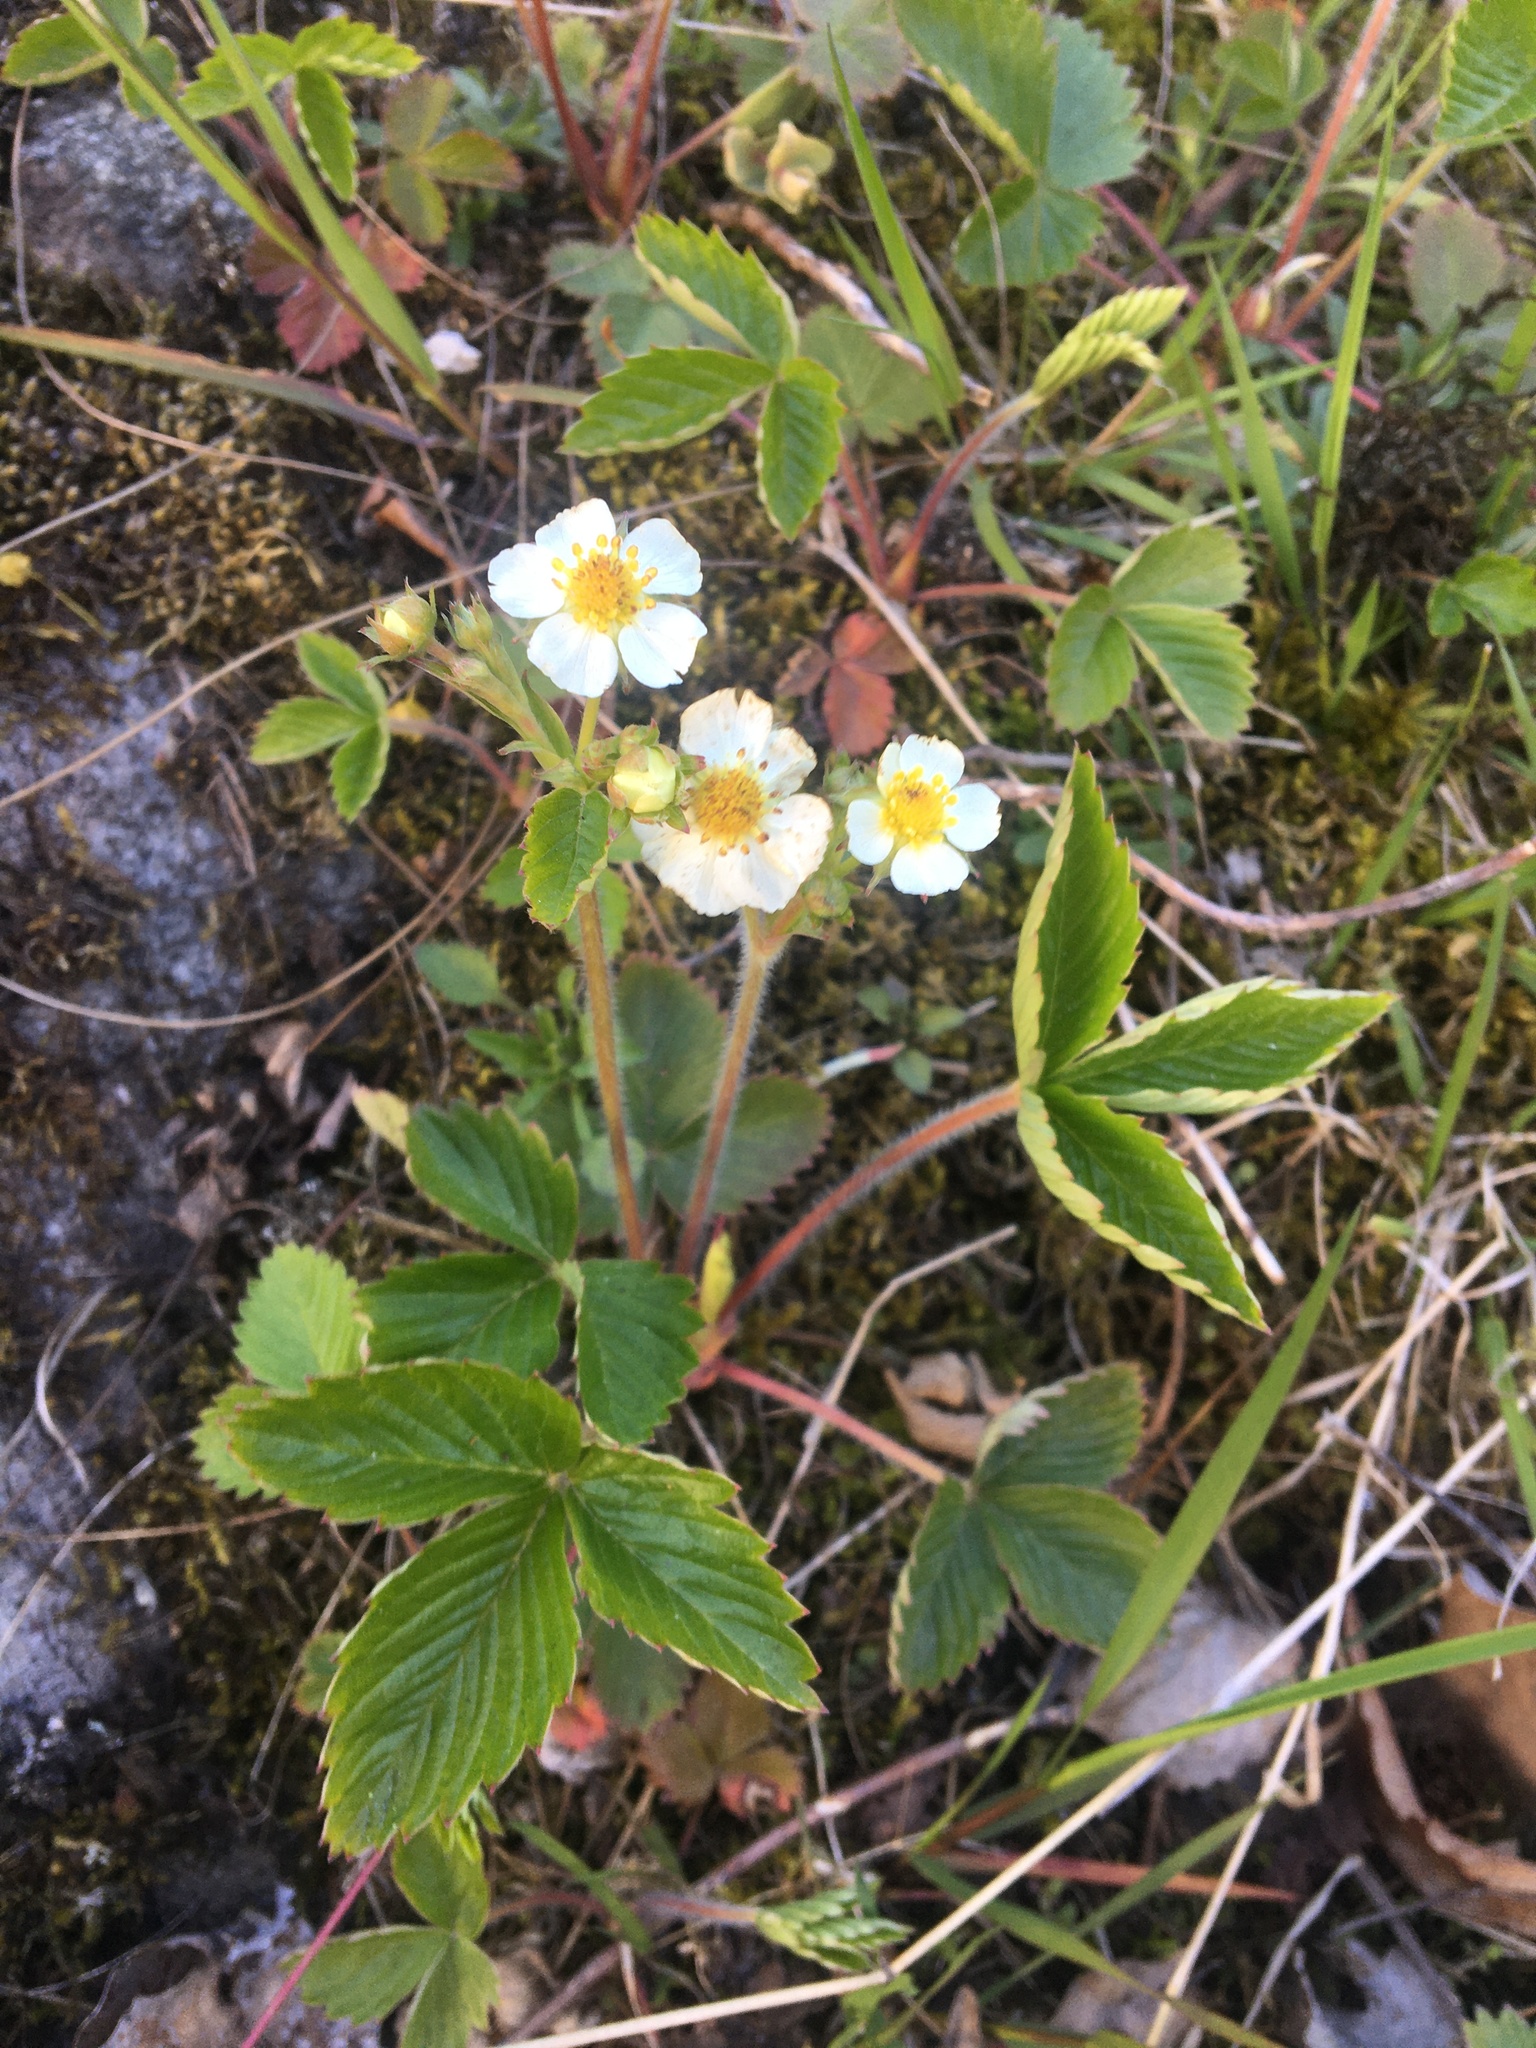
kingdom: Plantae
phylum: Tracheophyta
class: Magnoliopsida
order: Rosales
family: Rosaceae
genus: Fragaria
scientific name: Fragaria vesca
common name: Wild strawberry
